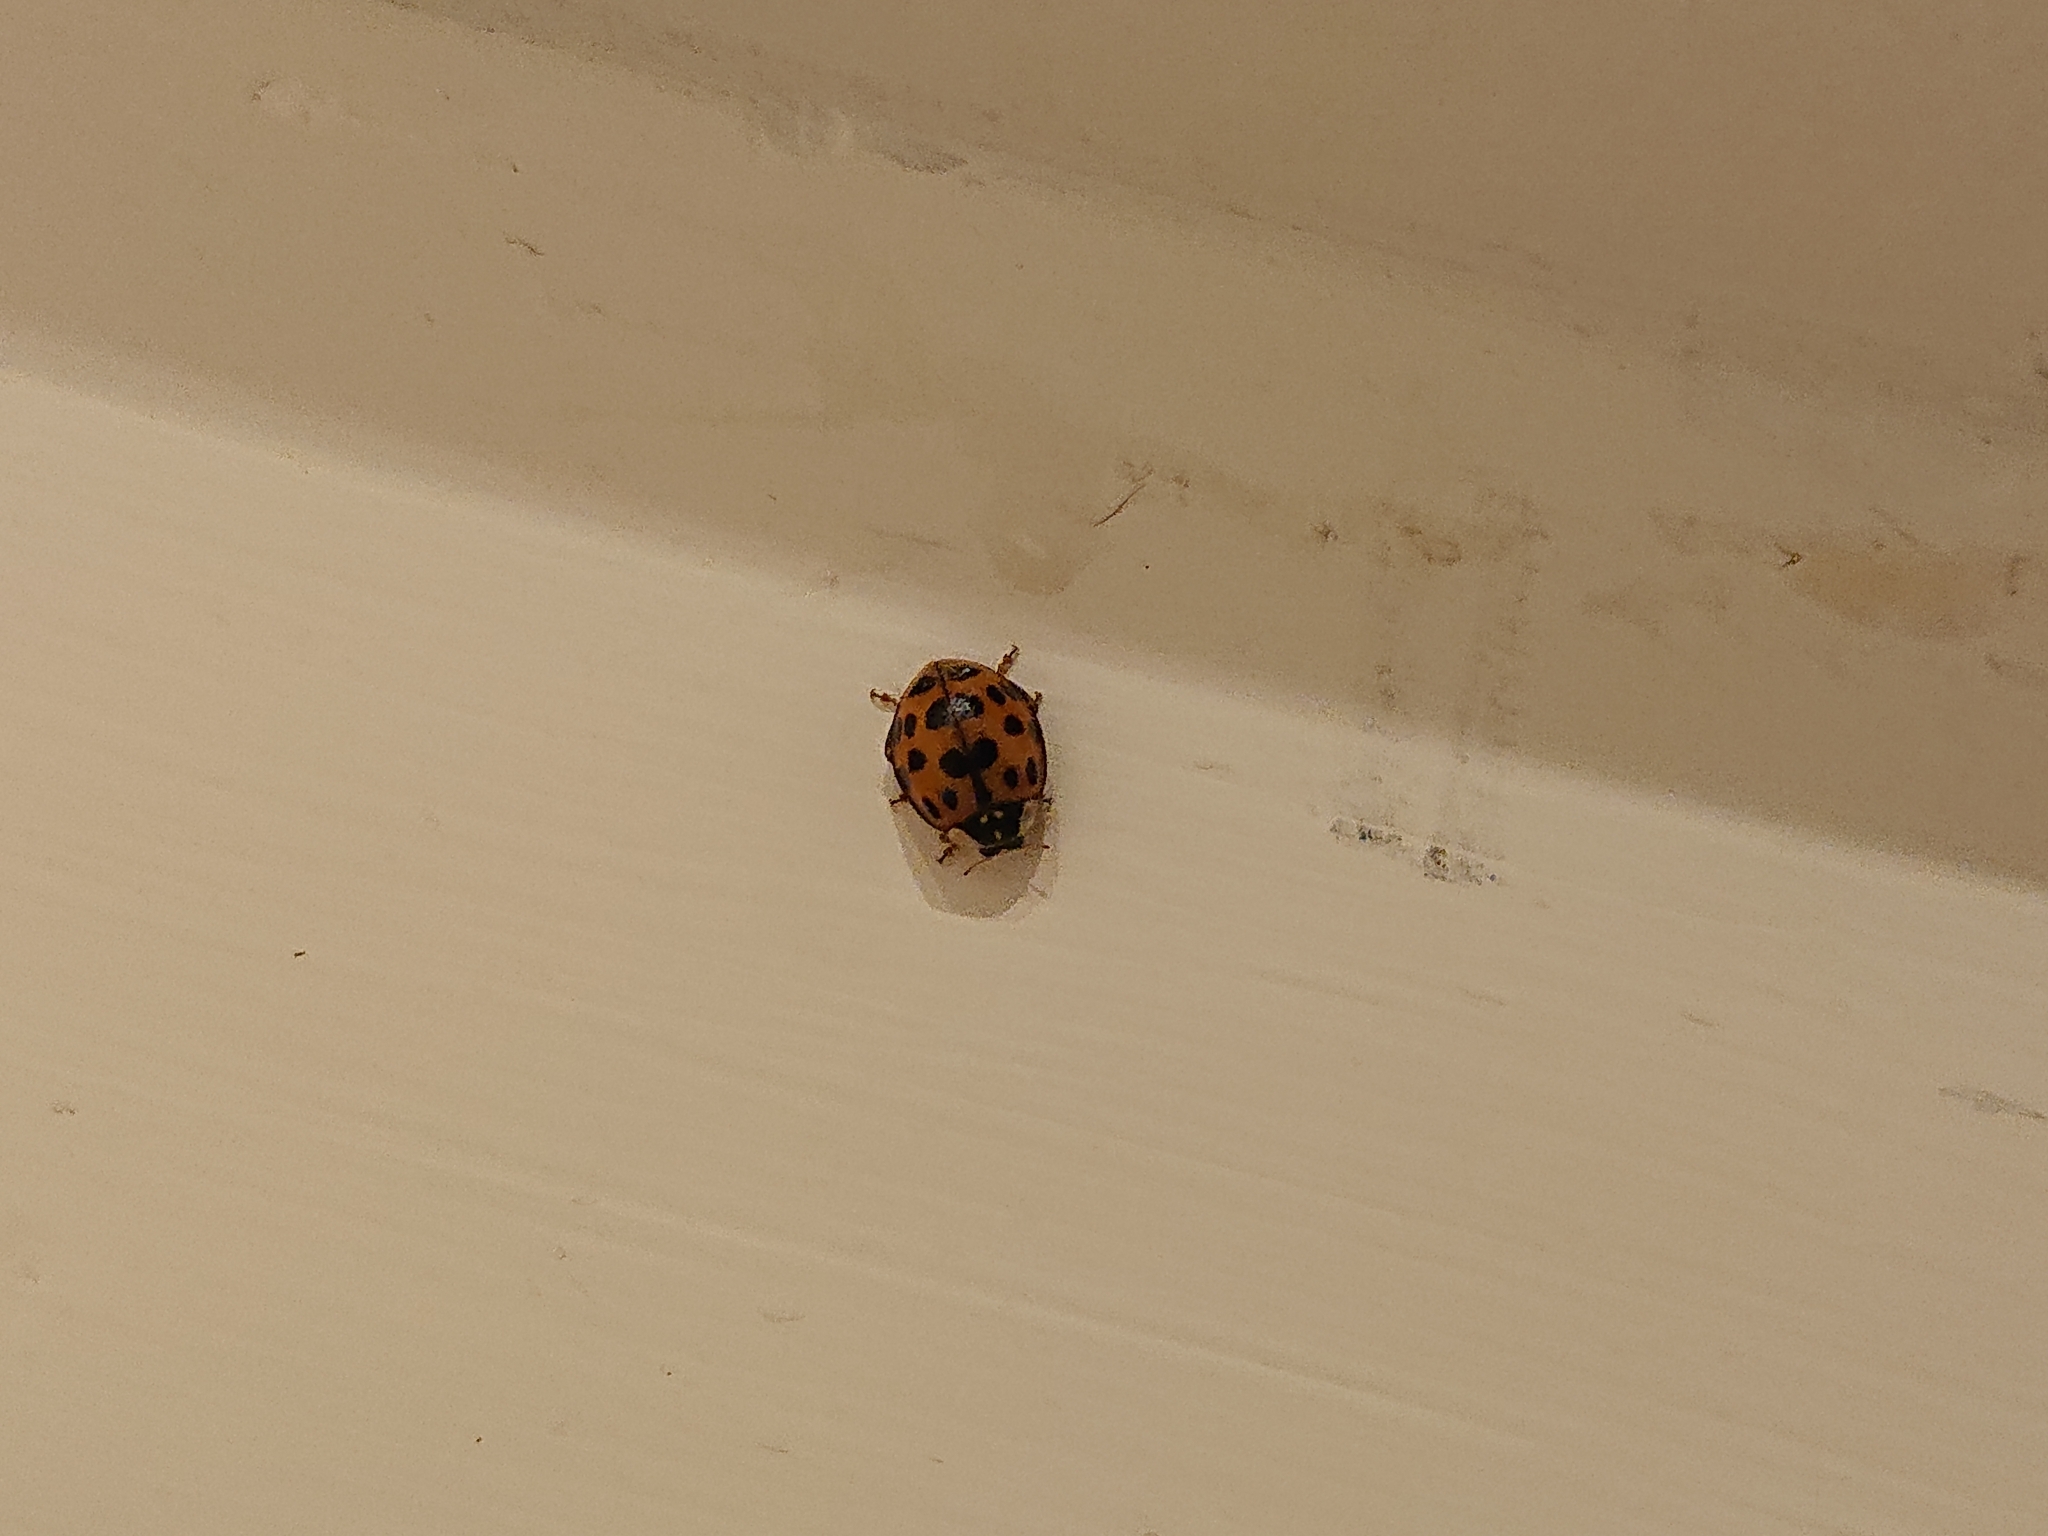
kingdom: Animalia
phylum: Arthropoda
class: Insecta
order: Coleoptera
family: Coccinellidae
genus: Harmonia
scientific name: Harmonia axyridis
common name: Harlequin ladybird
